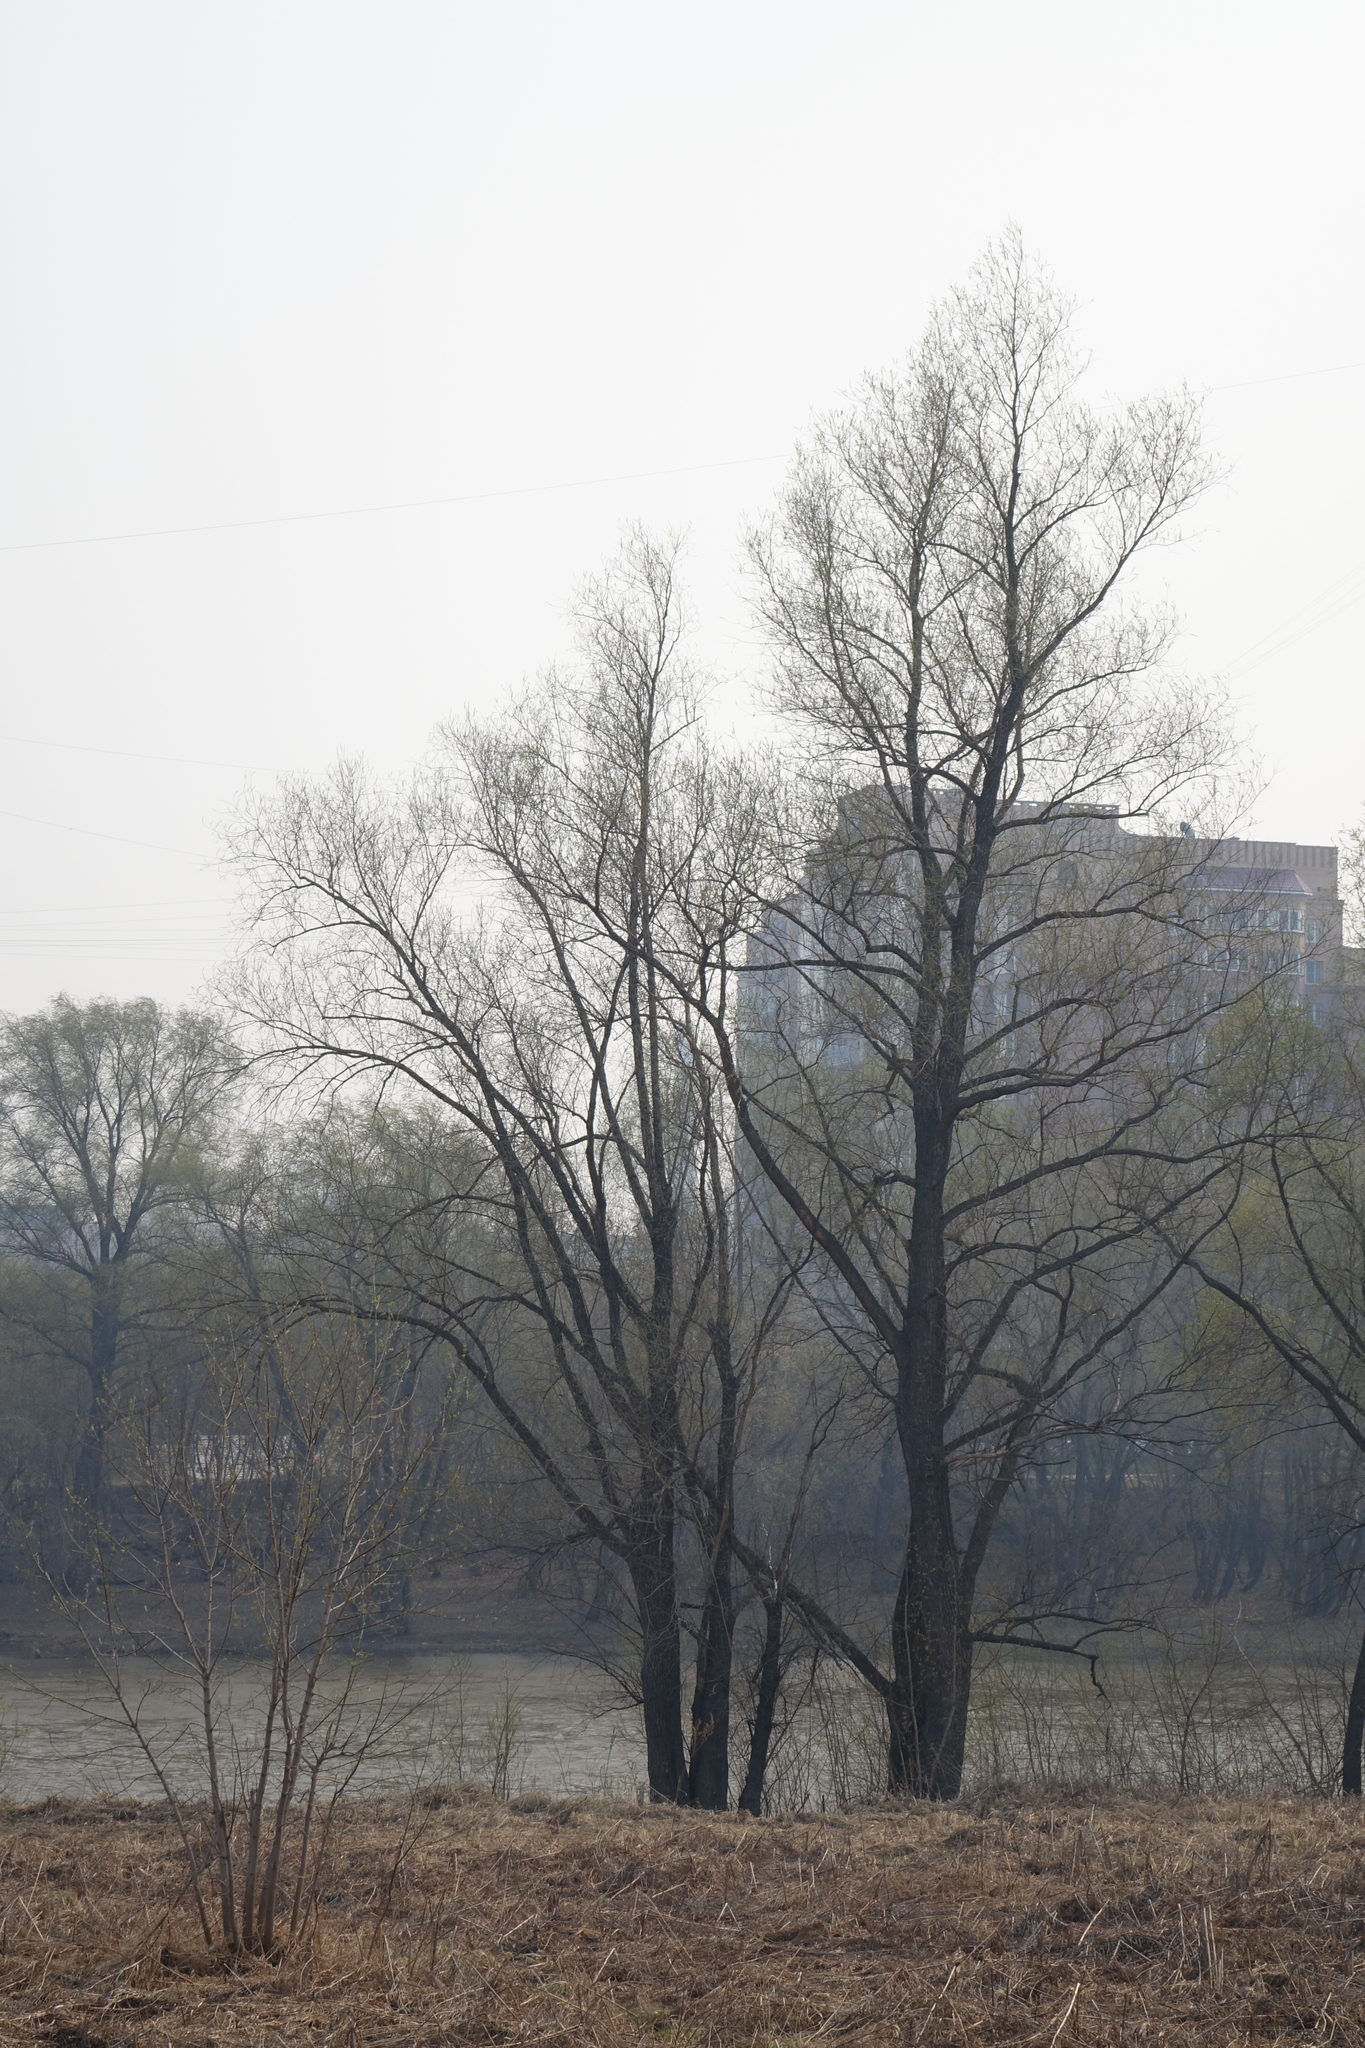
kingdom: Plantae
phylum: Tracheophyta
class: Magnoliopsida
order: Malpighiales
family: Salicaceae
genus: Salix
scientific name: Salix alba
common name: White willow
